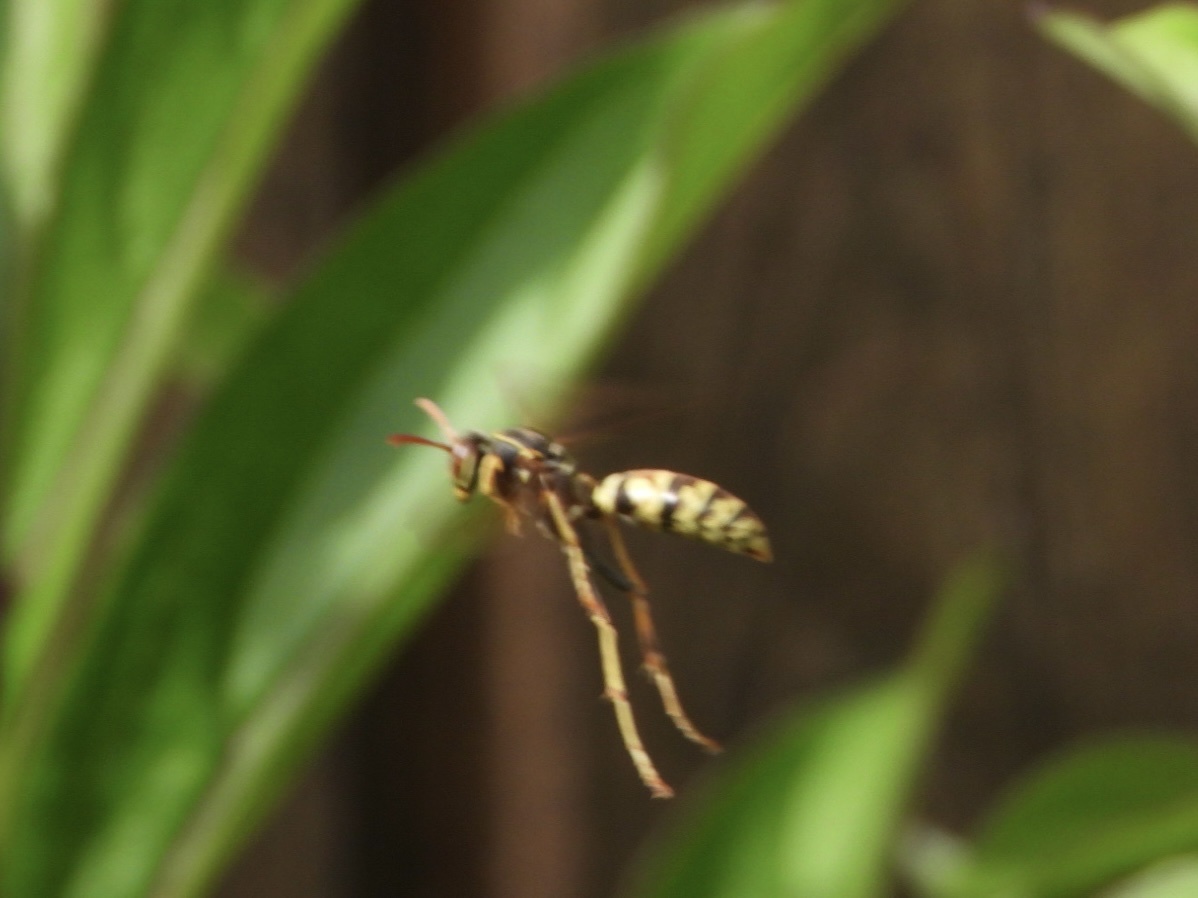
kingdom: Animalia
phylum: Arthropoda
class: Insecta
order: Hymenoptera
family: Eumenidae
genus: Polistes
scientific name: Polistes aurifer
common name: Paper wasp
